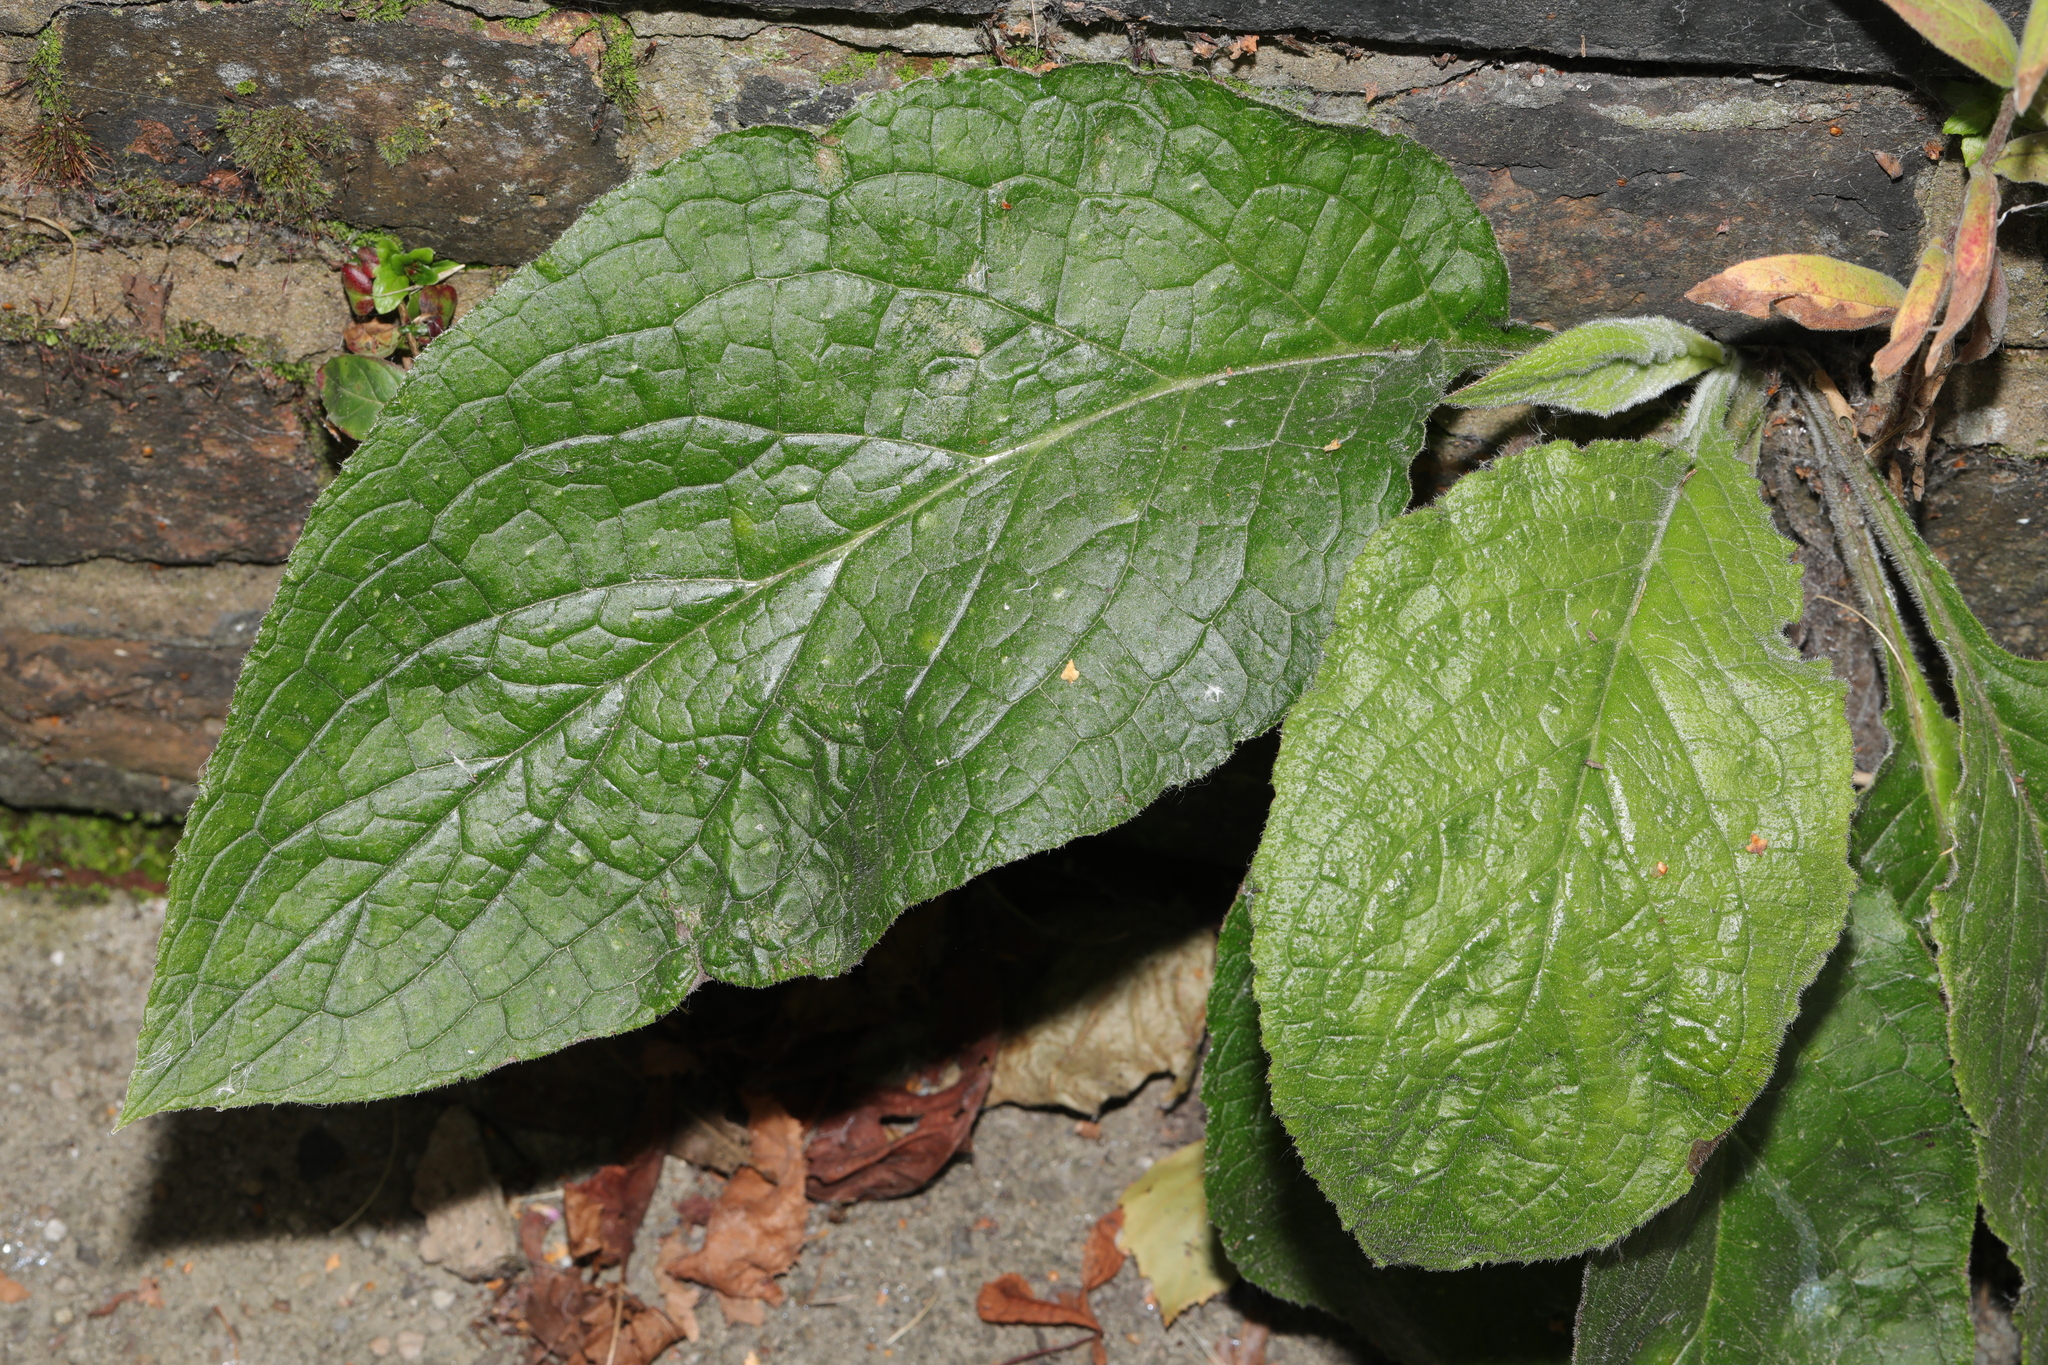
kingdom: Plantae
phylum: Tracheophyta
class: Magnoliopsida
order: Boraginales
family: Boraginaceae
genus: Pentaglottis
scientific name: Pentaglottis sempervirens
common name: Green alkanet
